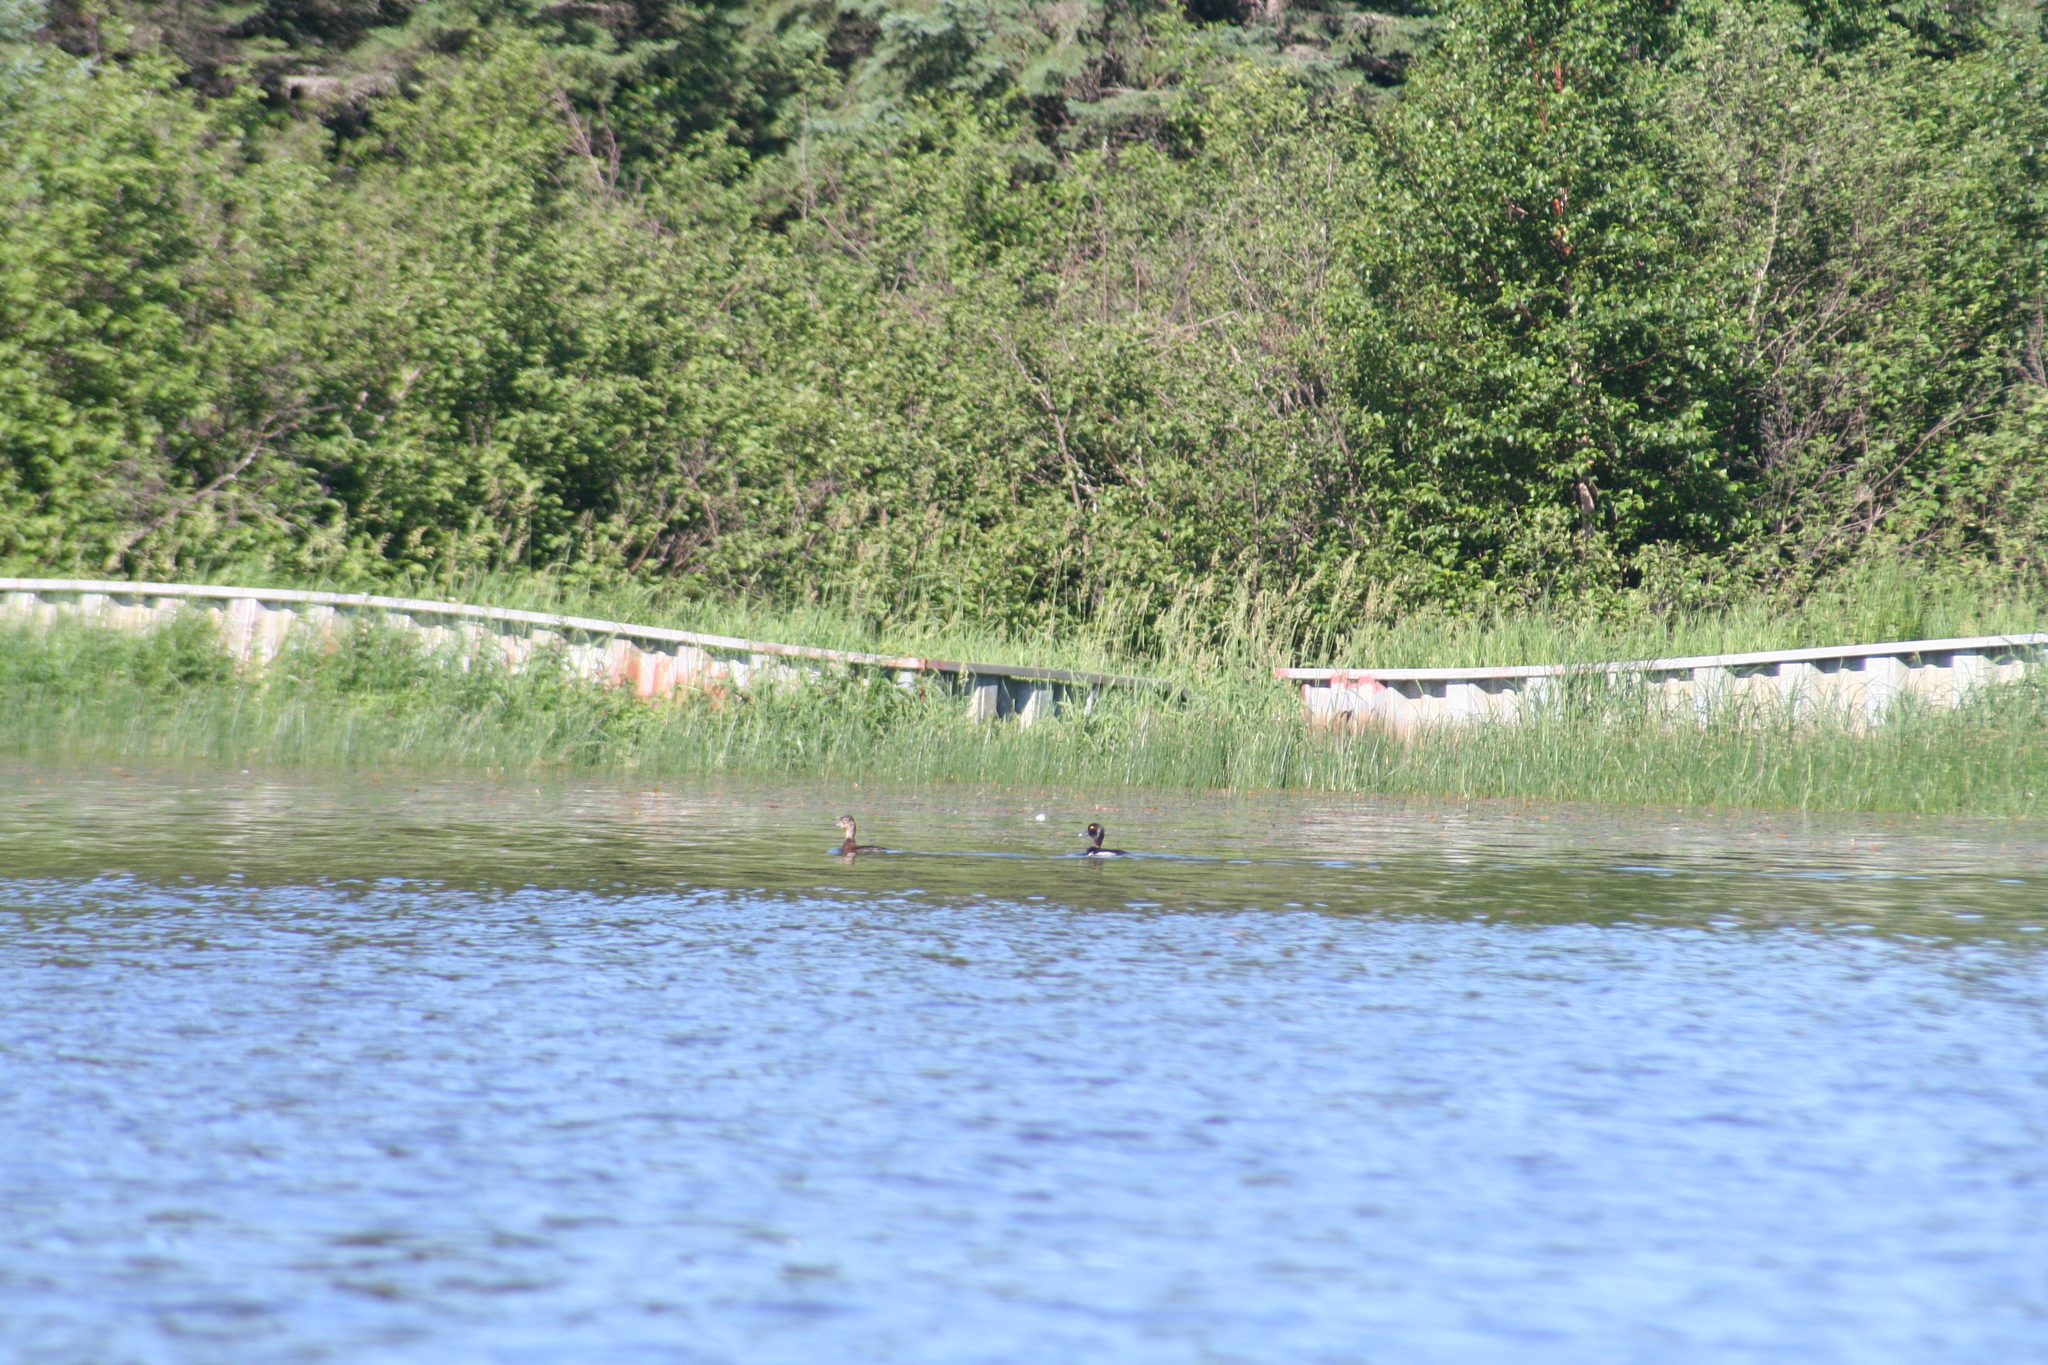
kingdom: Animalia
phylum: Chordata
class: Aves
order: Anseriformes
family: Anatidae
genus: Aythya
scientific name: Aythya collaris
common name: Ring-necked duck
